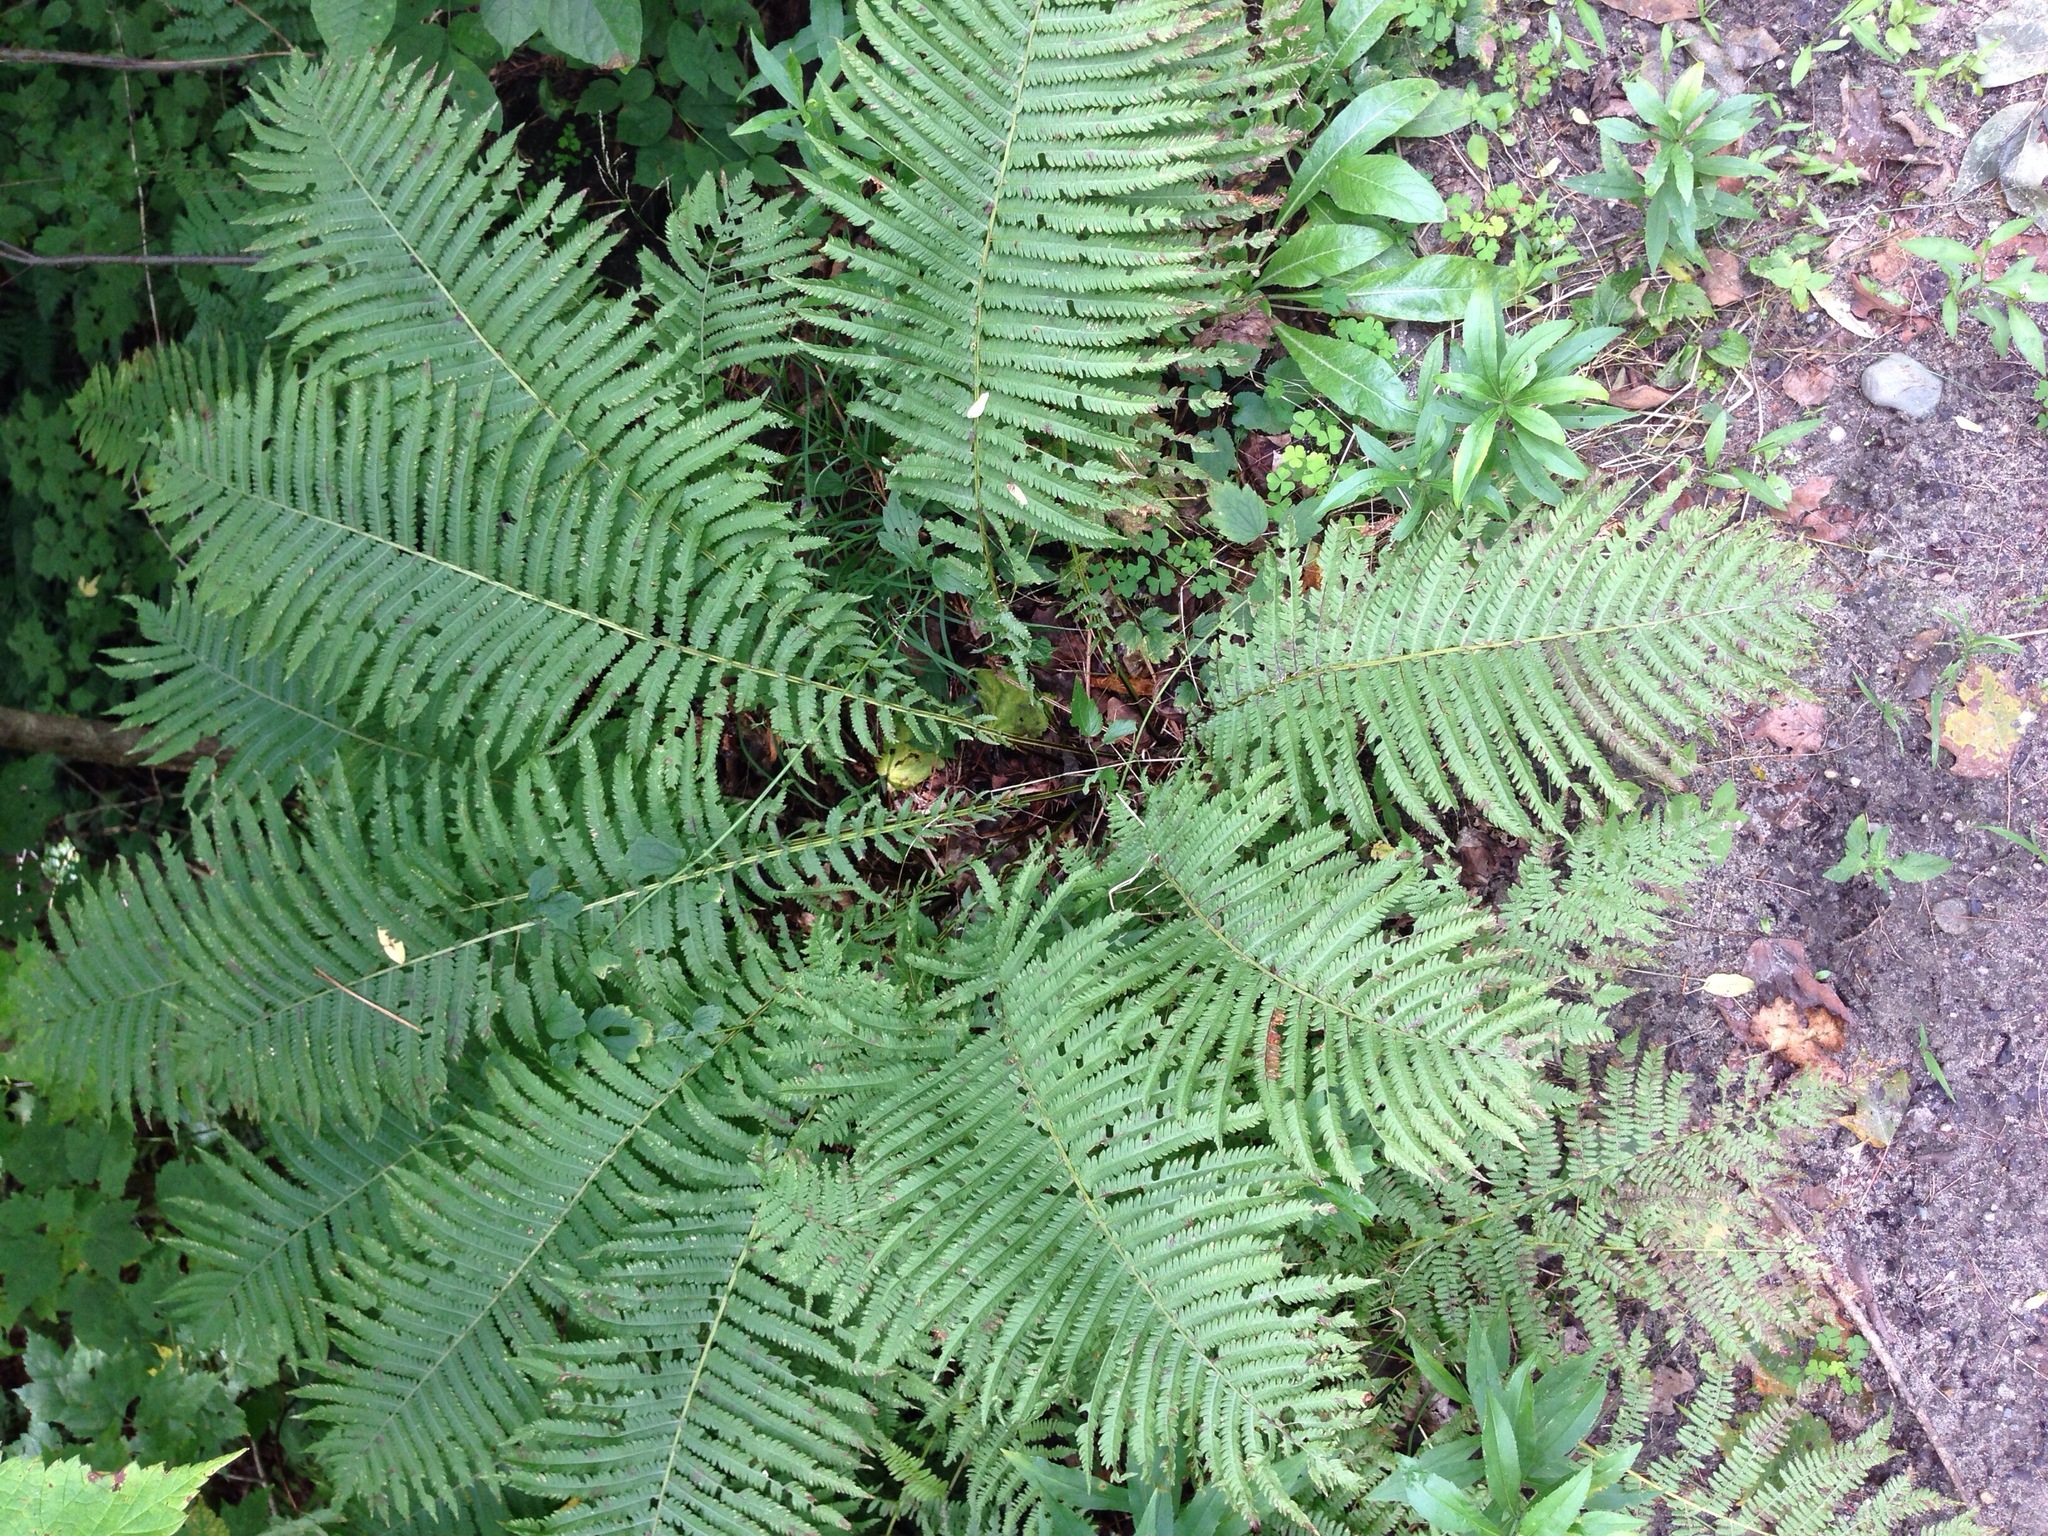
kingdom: Plantae
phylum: Tracheophyta
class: Polypodiopsida
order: Polypodiales
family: Onocleaceae
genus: Matteuccia
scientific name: Matteuccia struthiopteris
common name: Ostrich fern
